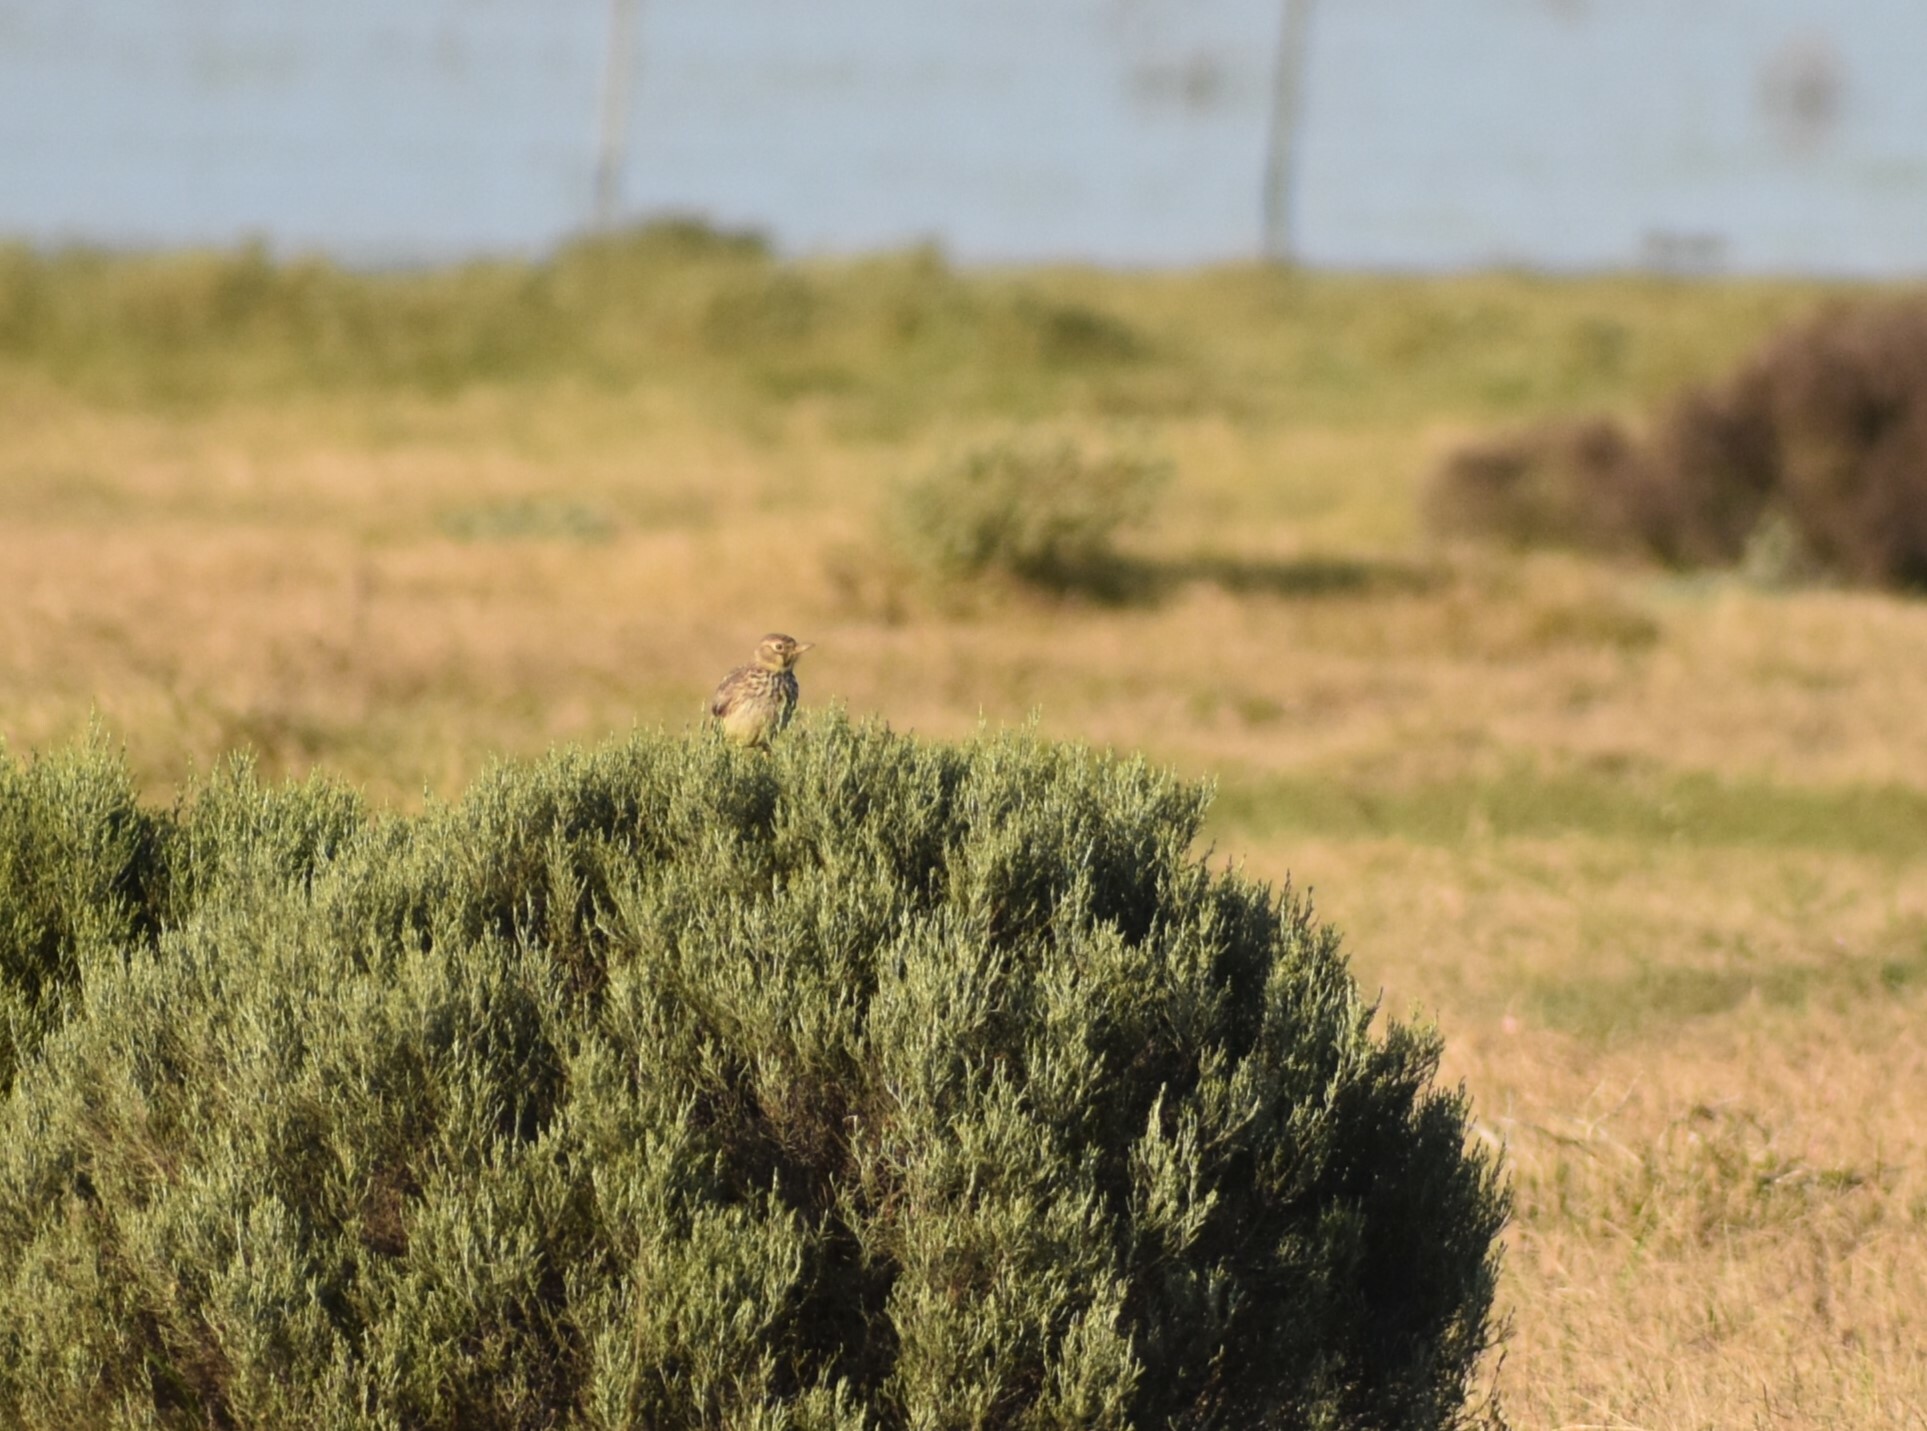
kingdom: Animalia
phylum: Chordata
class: Aves
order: Passeriformes
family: Alaudidae
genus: Galerida
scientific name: Galerida magnirostris
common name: Large-billed lark
